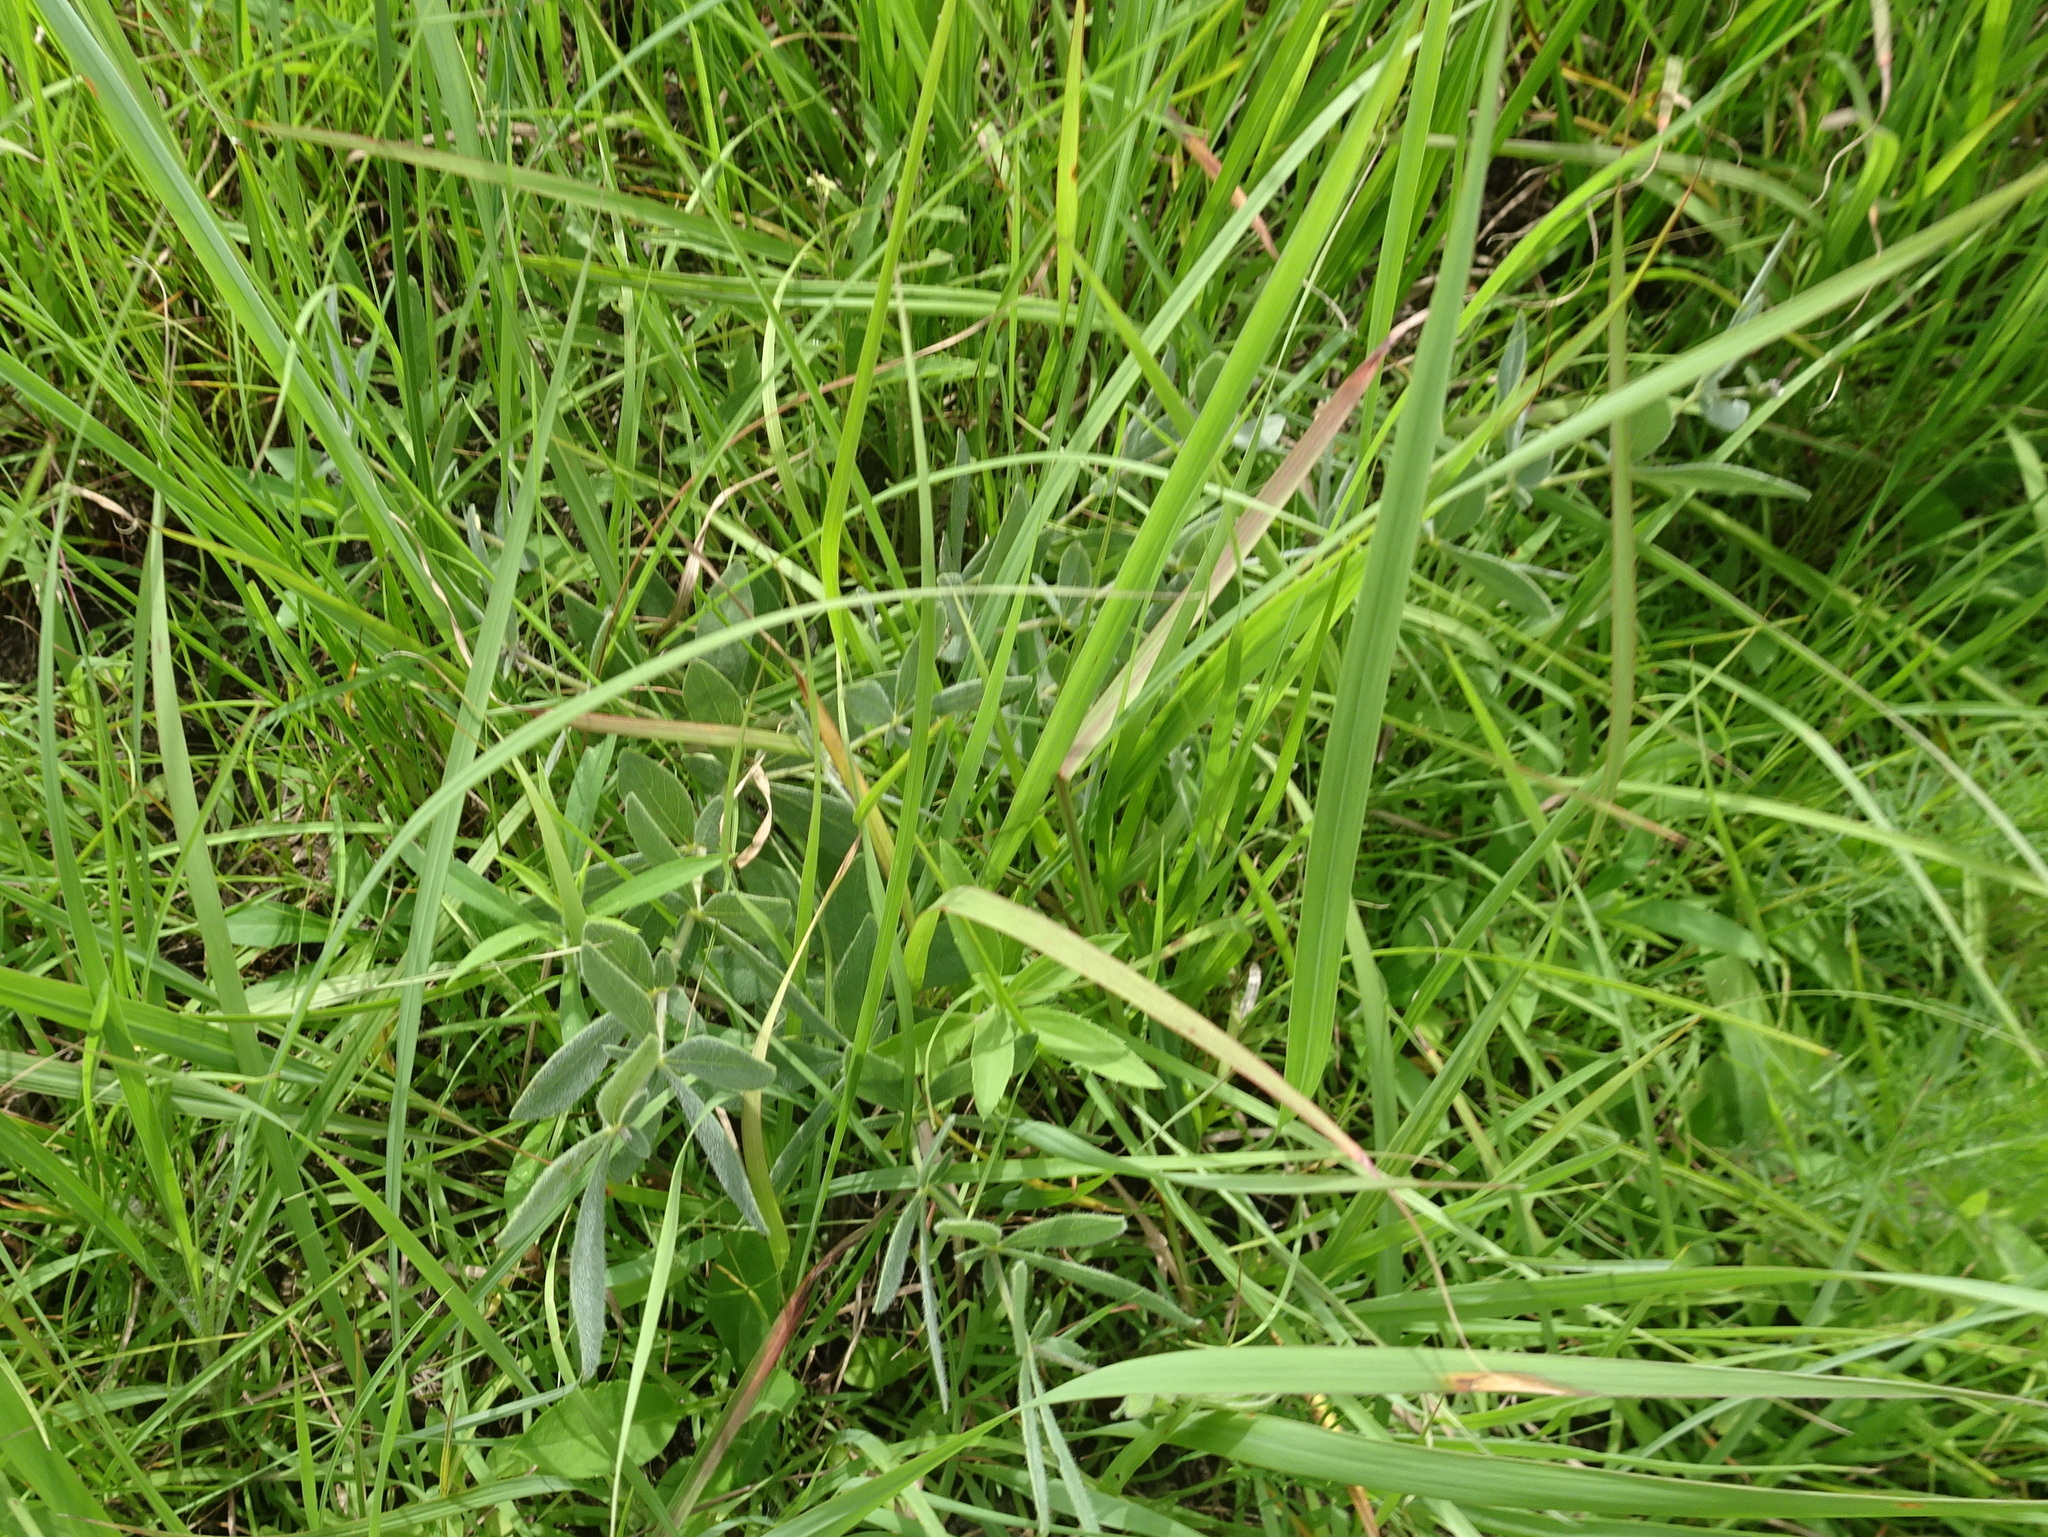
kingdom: Plantae
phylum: Tracheophyta
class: Magnoliopsida
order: Fabales
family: Fabaceae
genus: Baptisia
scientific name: Baptisia bracteata
